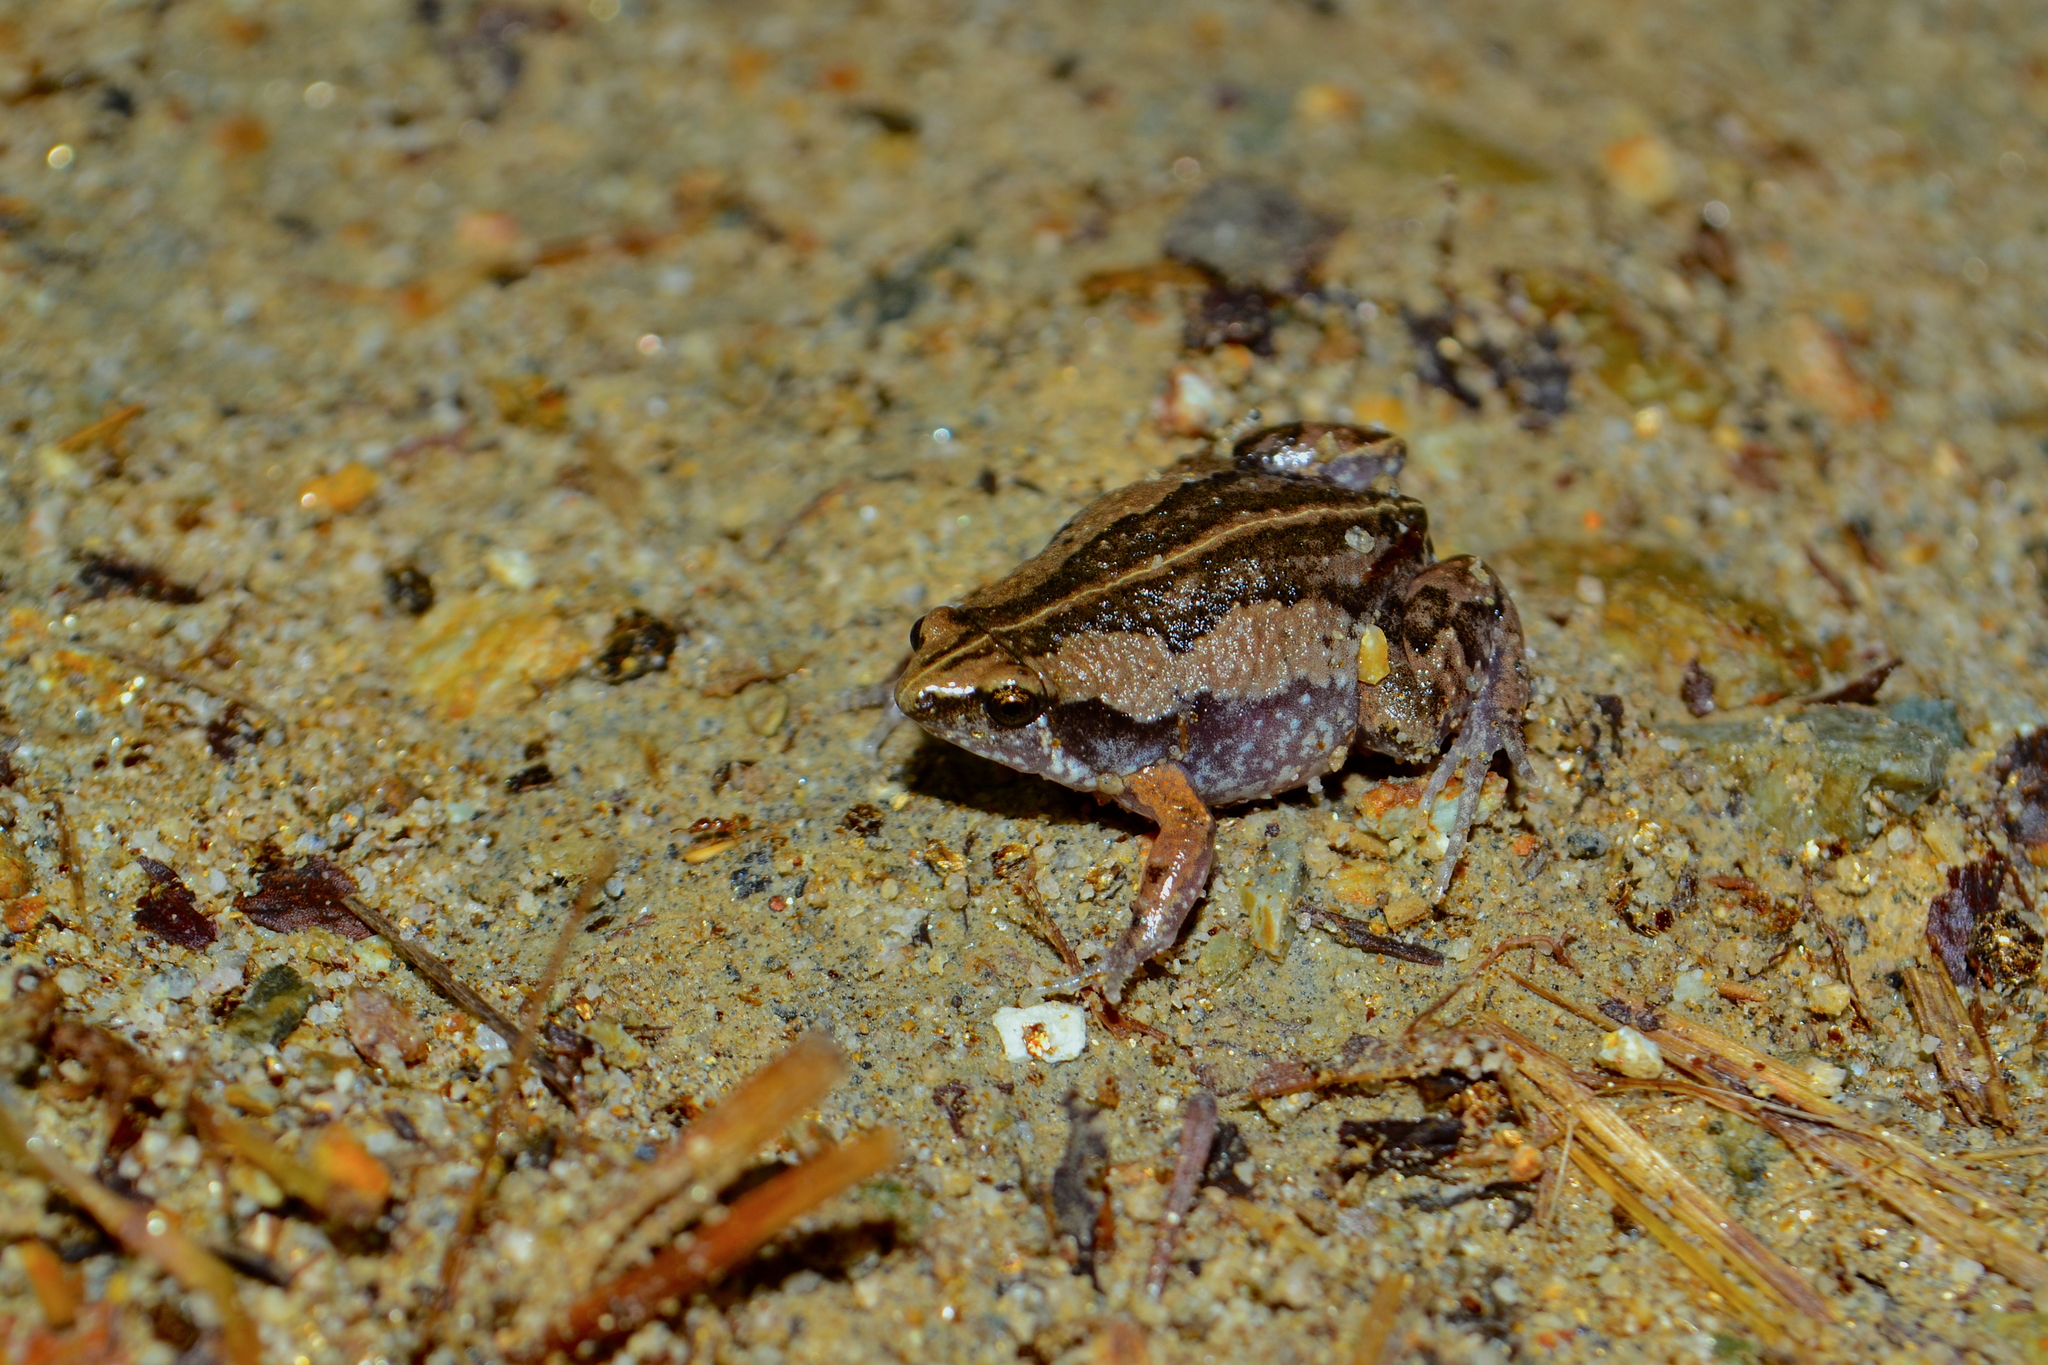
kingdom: Animalia
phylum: Chordata
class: Amphibia
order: Anura
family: Microhylidae
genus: Hypopachus
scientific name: Hypopachus ustus
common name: Two-spade narrowmouth toad
